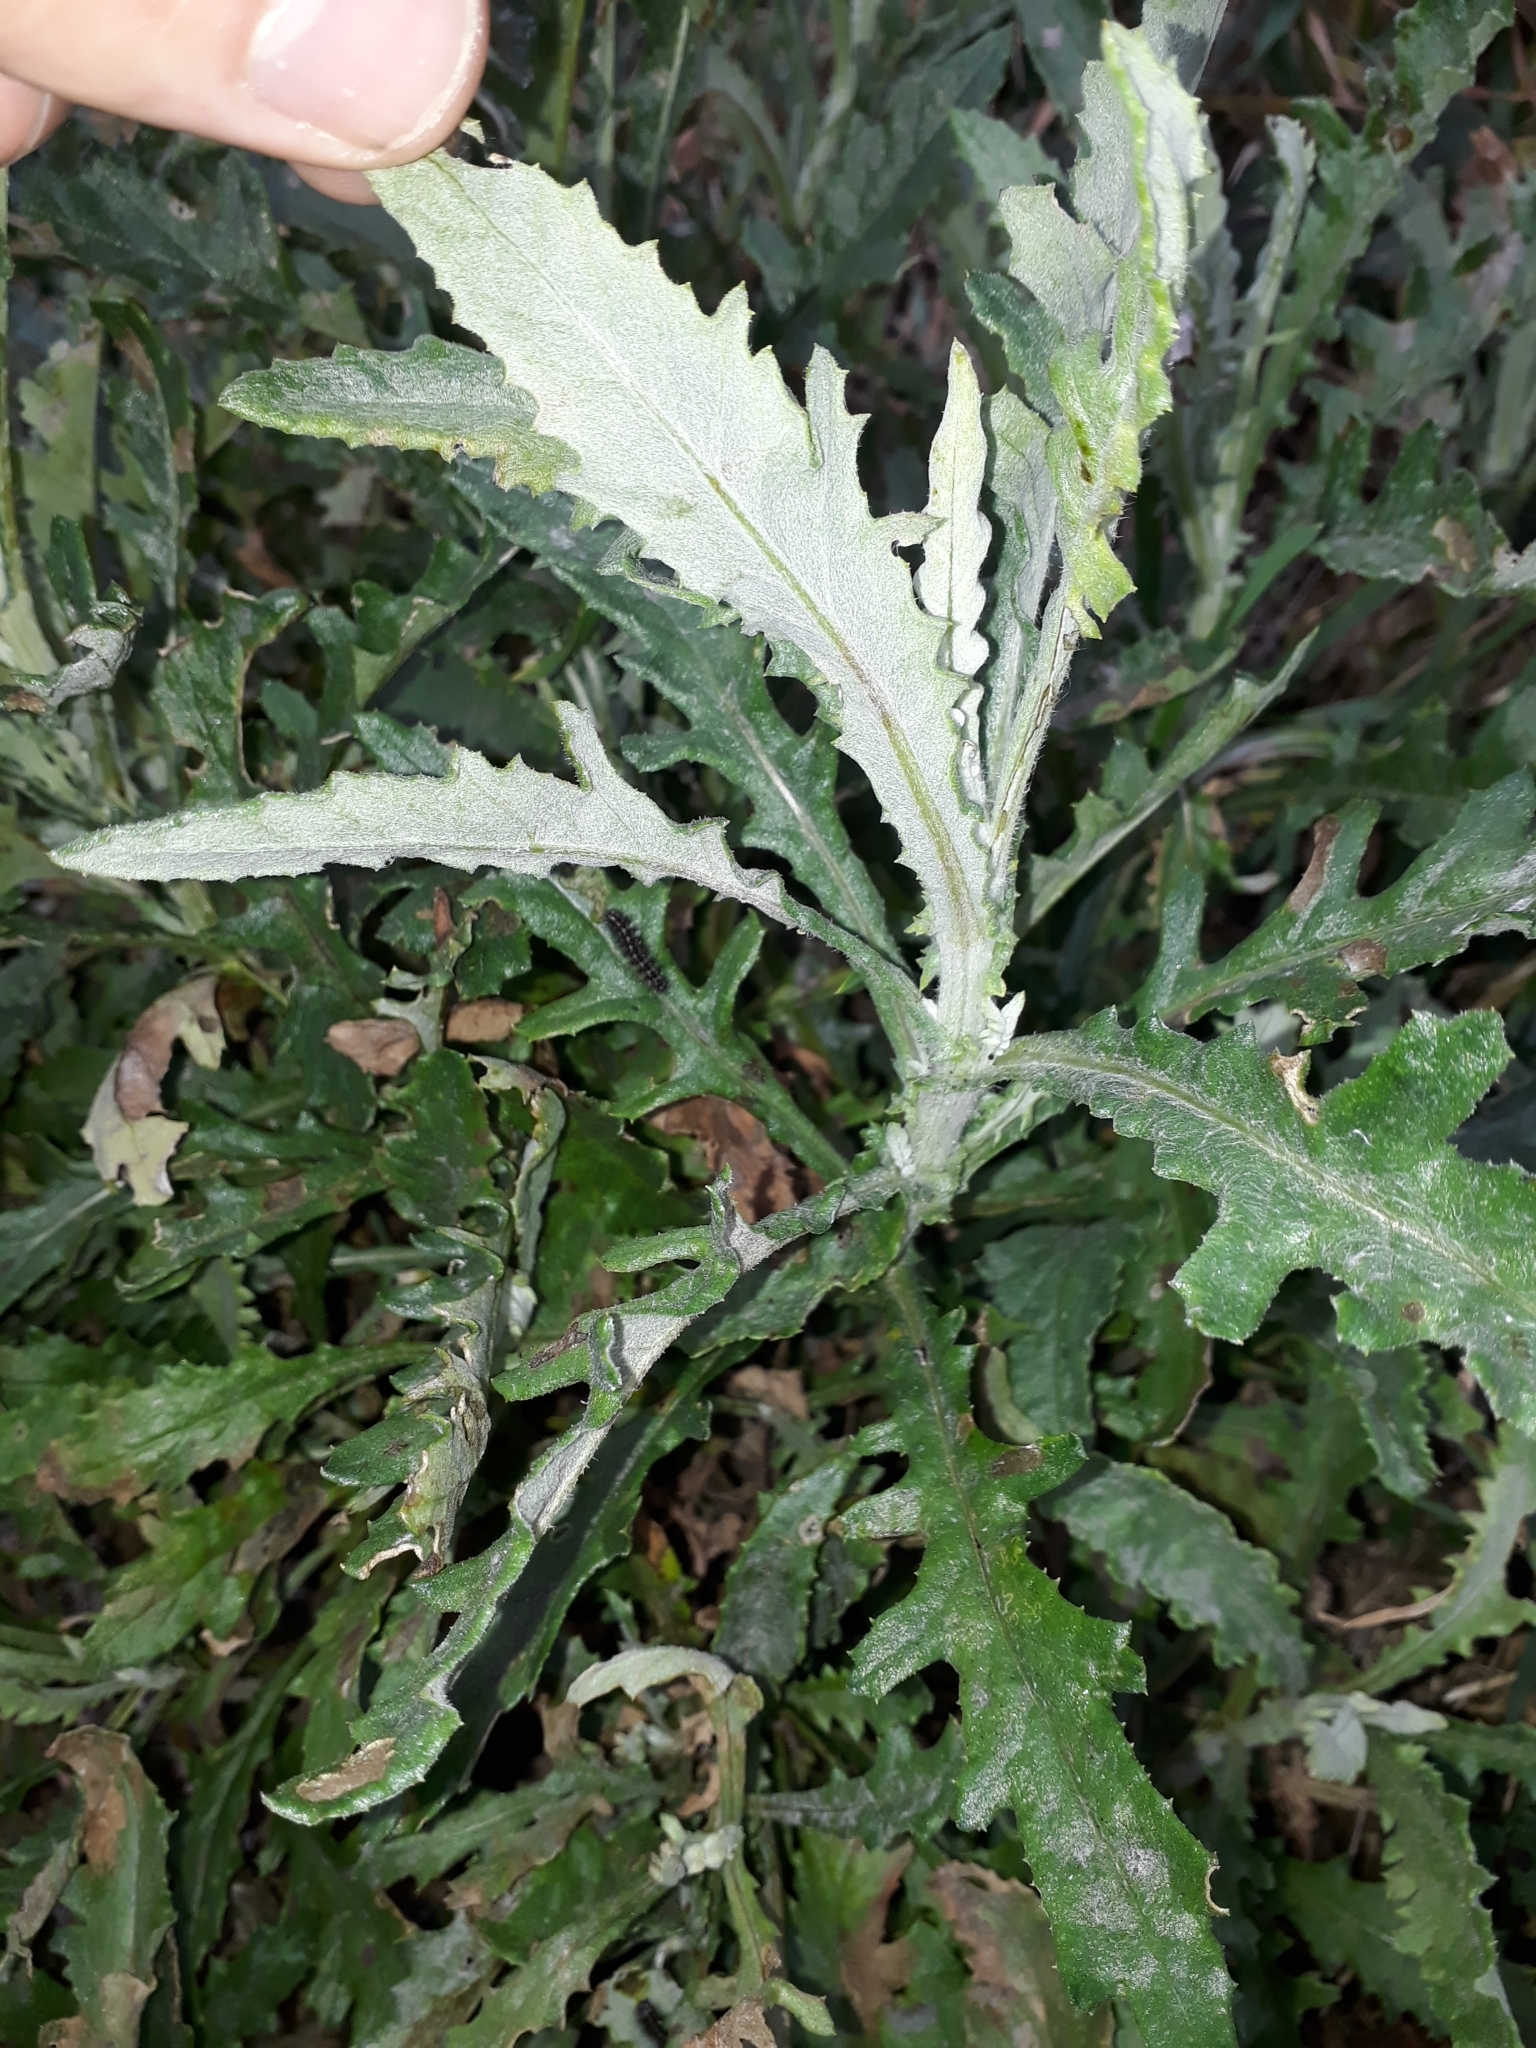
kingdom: Plantae
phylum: Tracheophyta
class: Magnoliopsida
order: Asterales
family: Asteraceae
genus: Senecio
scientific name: Senecio glomeratus
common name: Cutleaf burnweed
